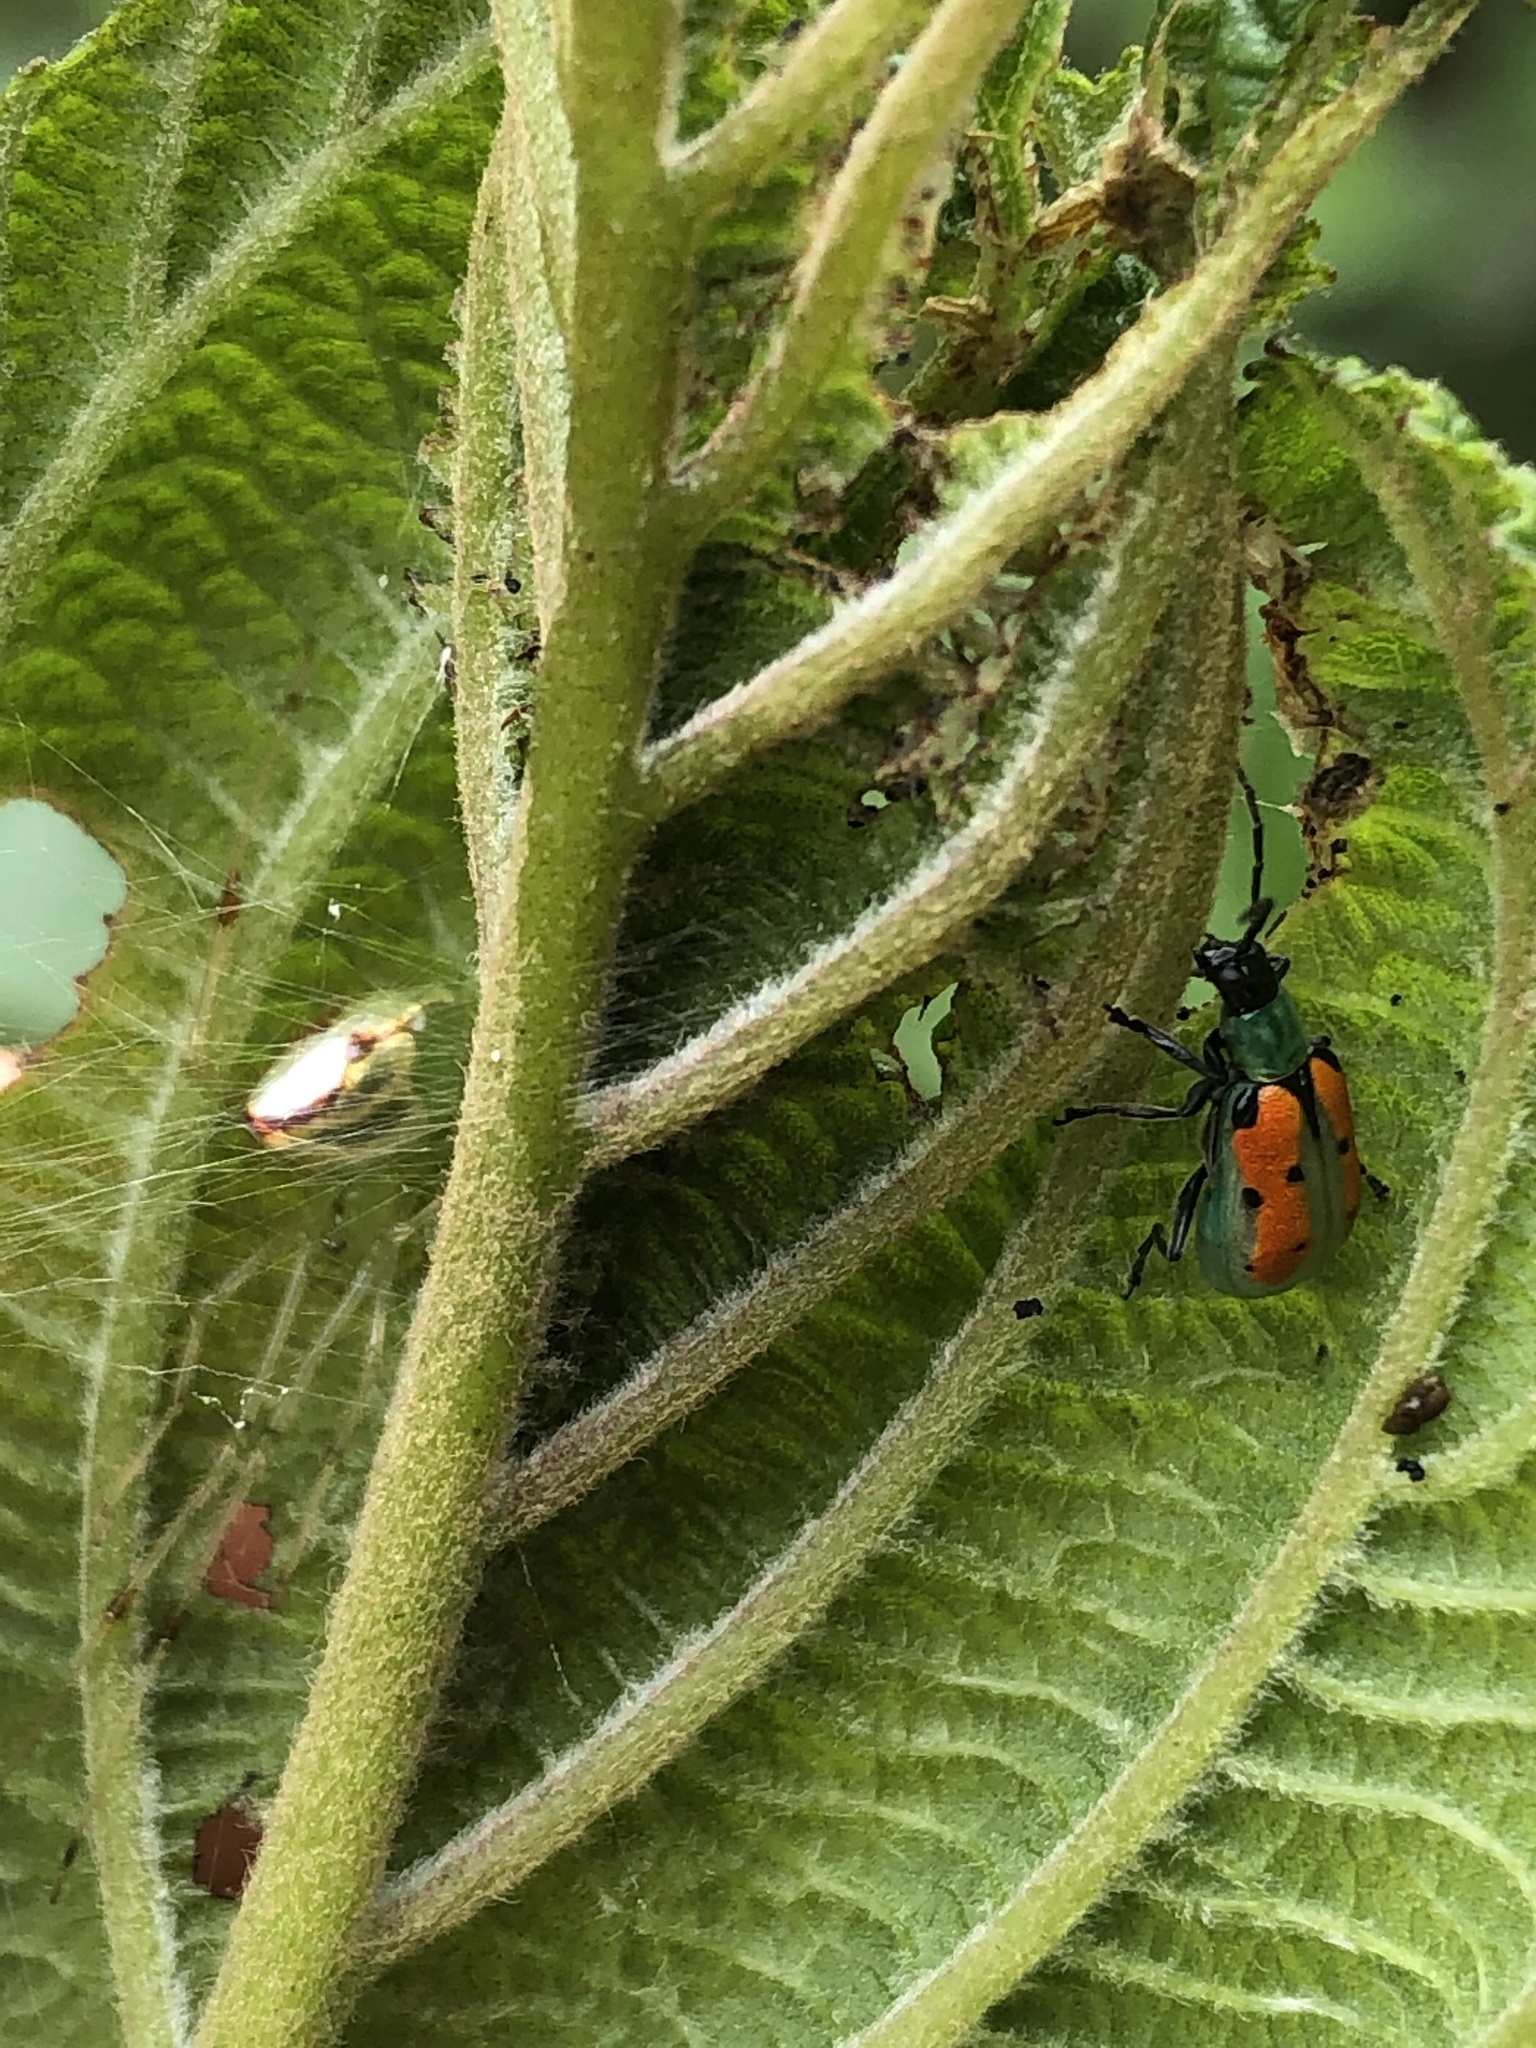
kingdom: Animalia
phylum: Arthropoda
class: Insecta
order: Coleoptera
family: Chrysomelidae
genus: Diabrotica
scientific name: Diabrotica decempunctata
